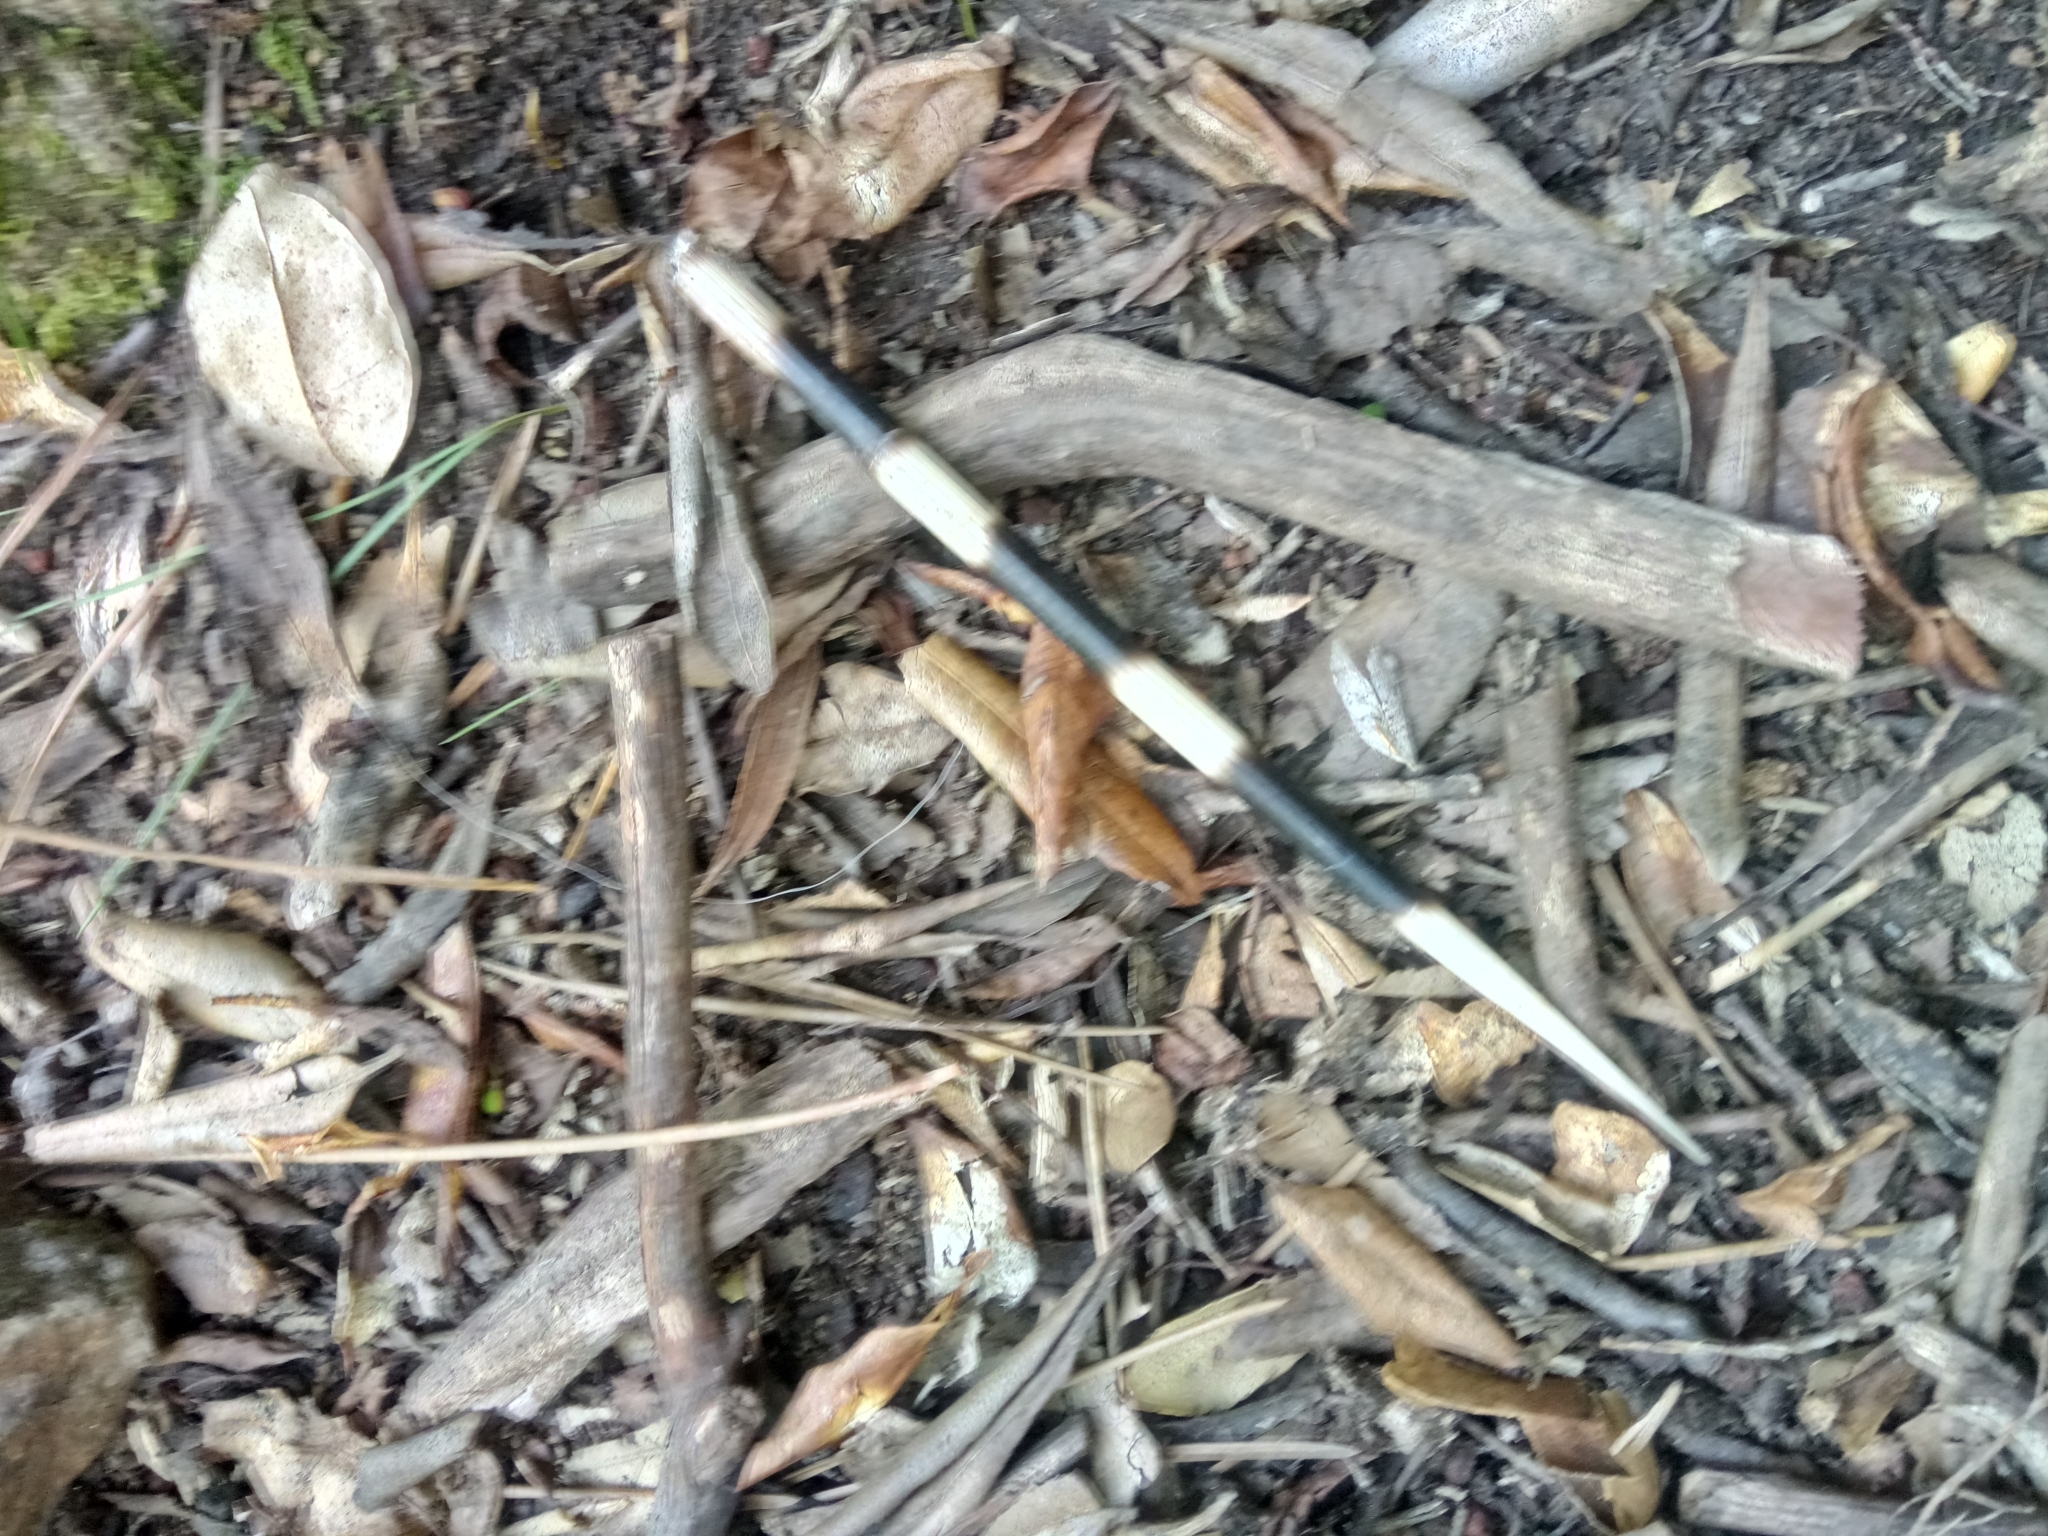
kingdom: Animalia
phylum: Chordata
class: Mammalia
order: Rodentia
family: Hystricidae
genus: Hystrix
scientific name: Hystrix cristata
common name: Crested porcupine
